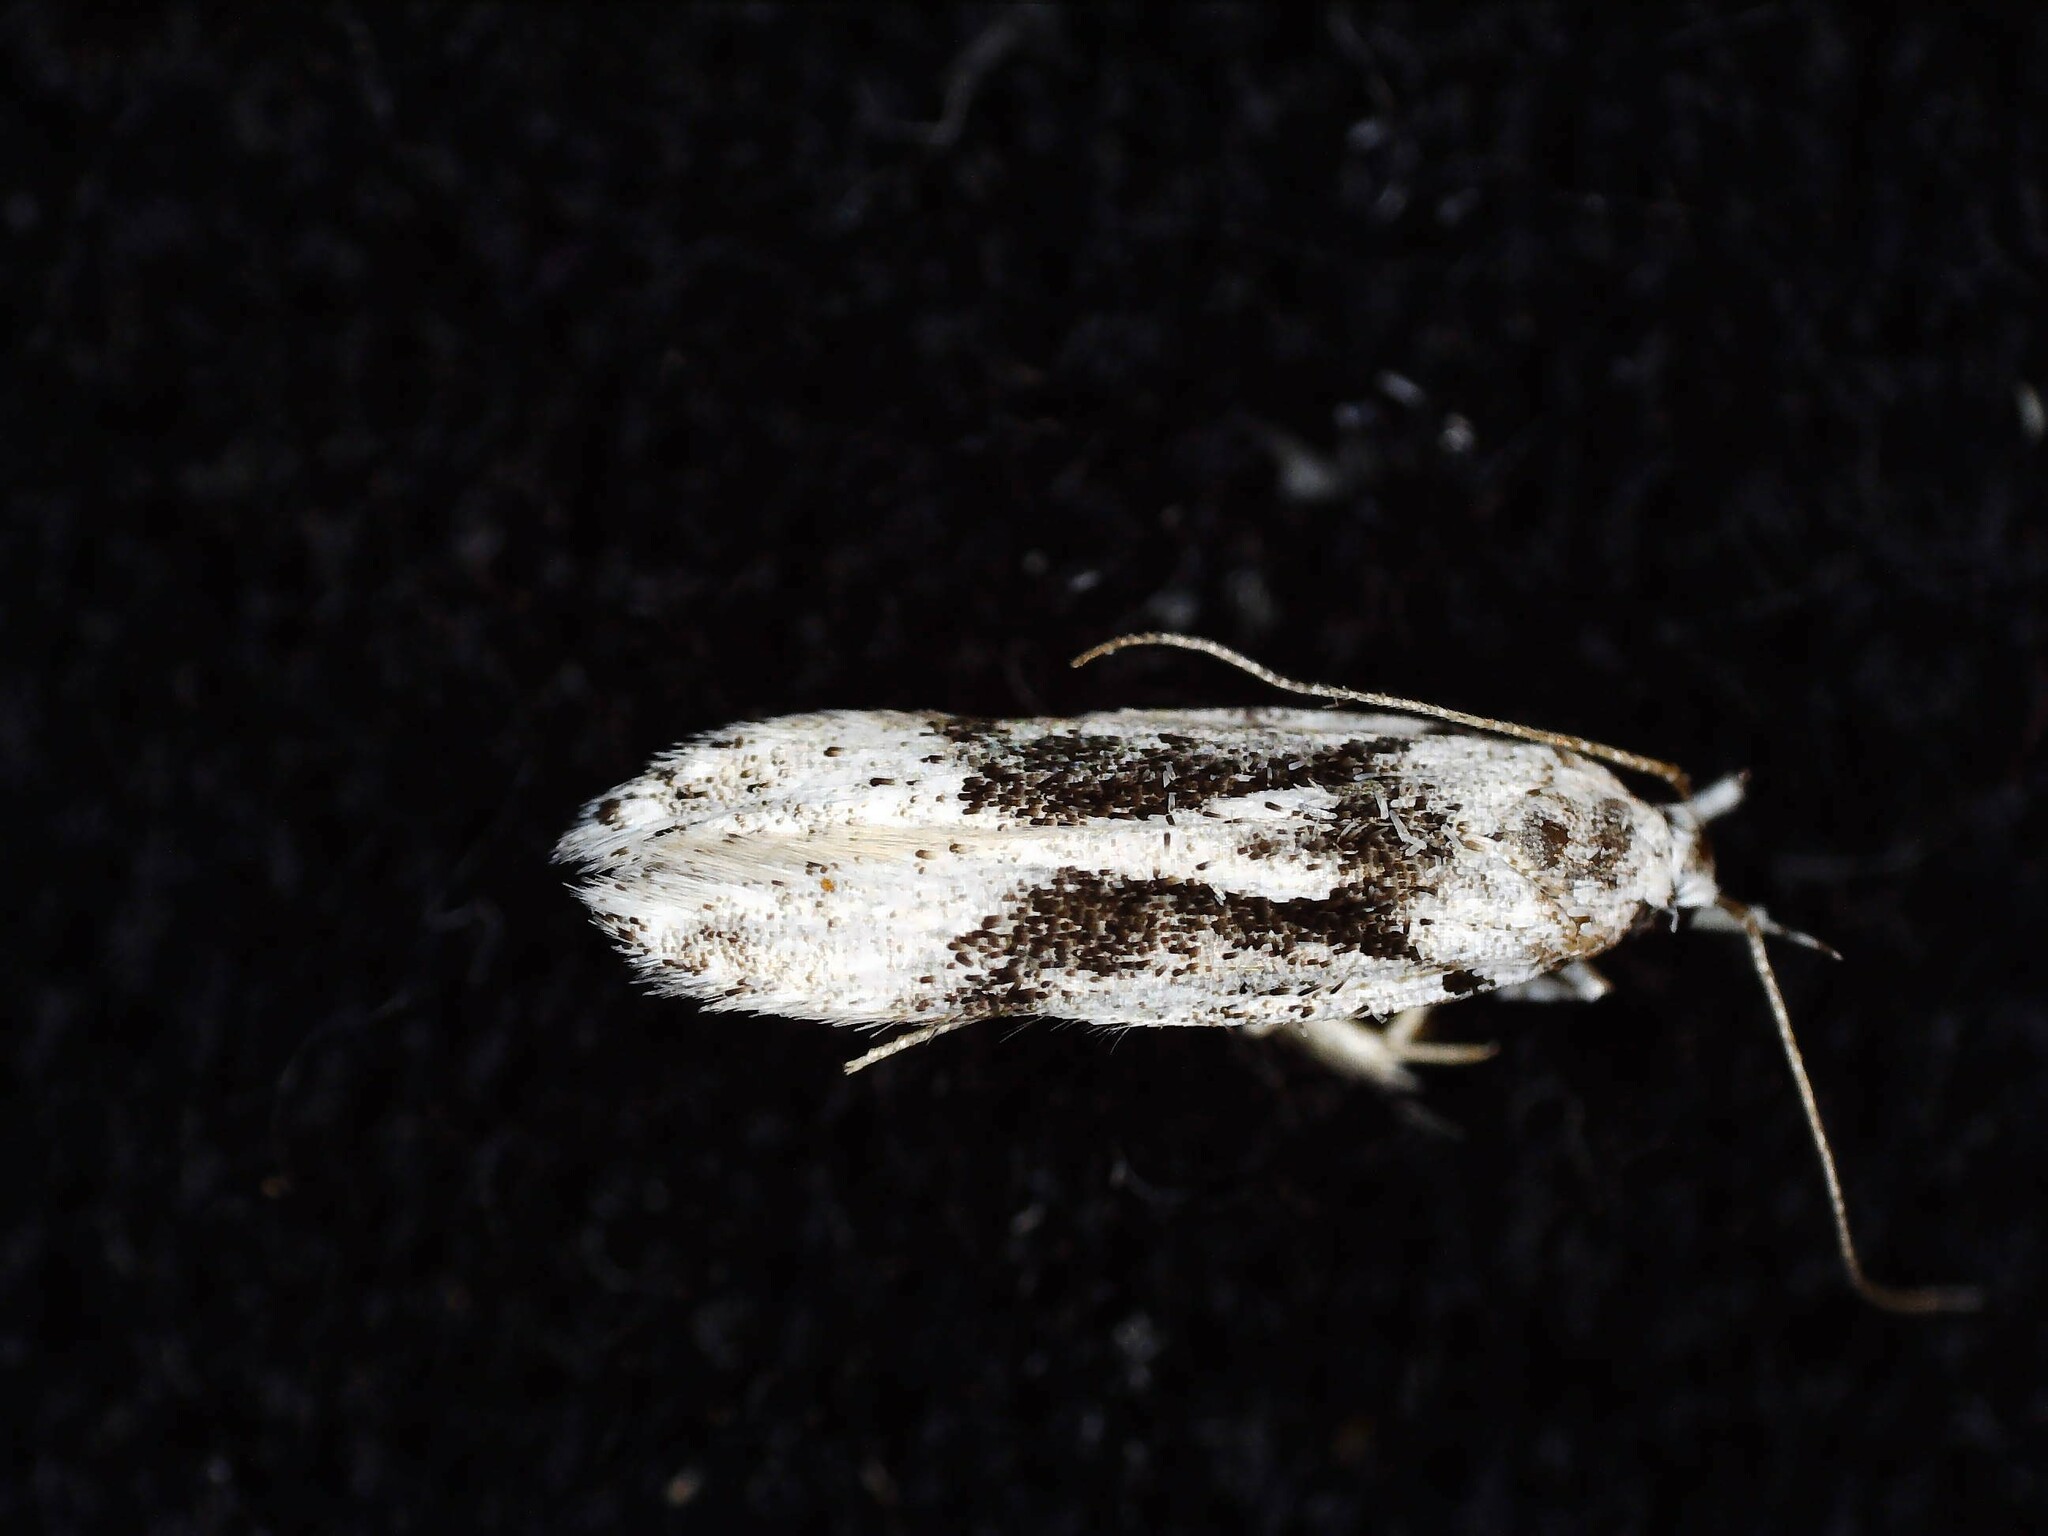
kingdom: Animalia
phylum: Arthropoda
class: Insecta
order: Lepidoptera
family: Gelechiidae
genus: Carpatolechia
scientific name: Carpatolechia alburnella
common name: Suffused groundling
